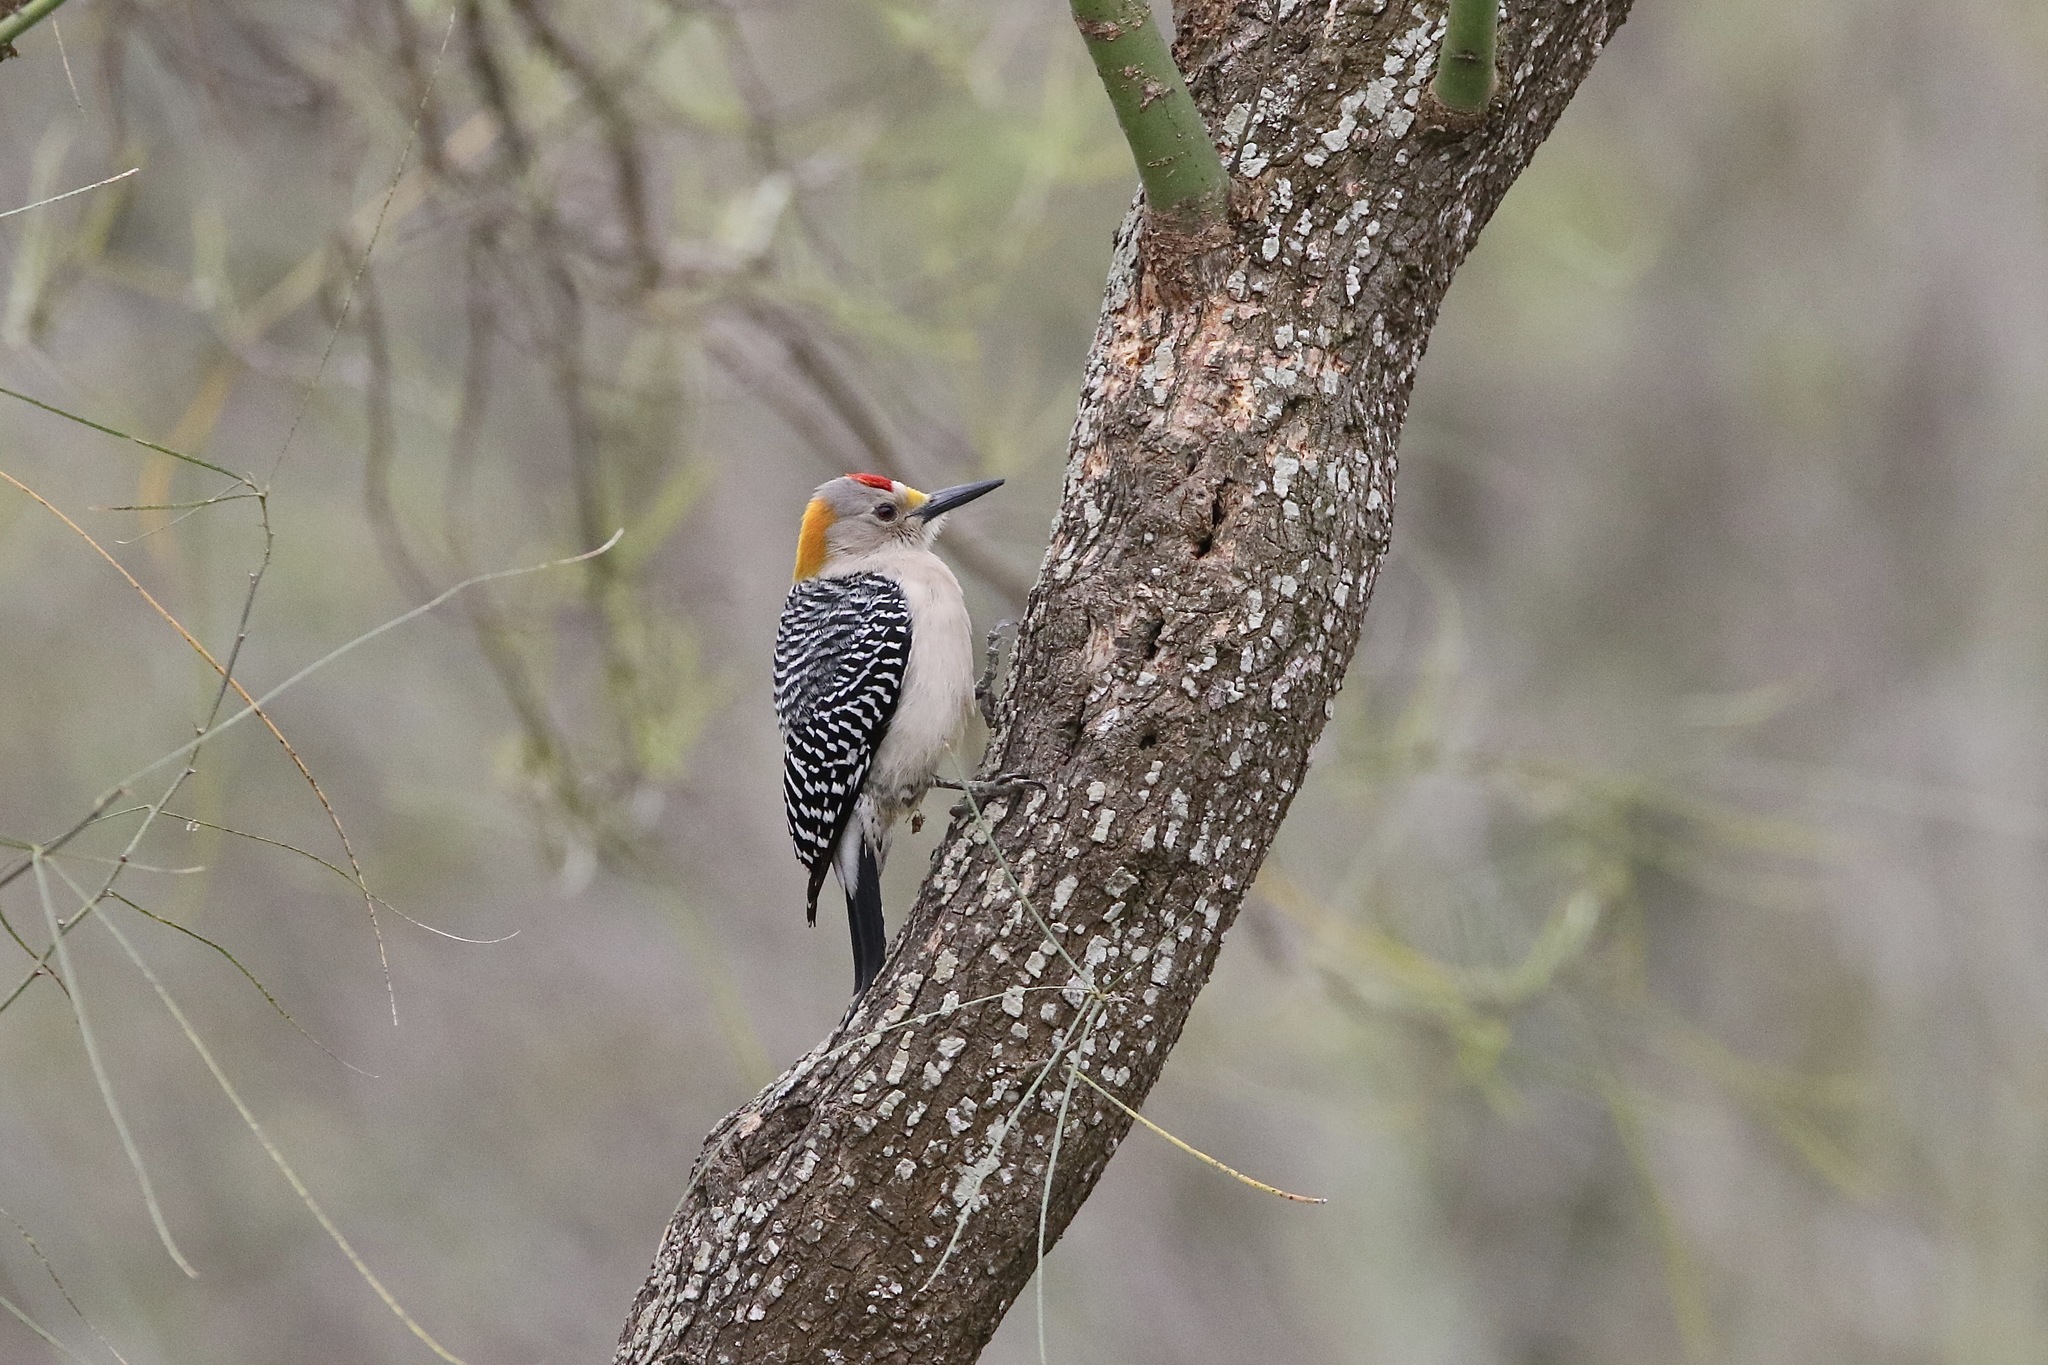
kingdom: Animalia
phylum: Chordata
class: Aves
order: Piciformes
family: Picidae
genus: Melanerpes
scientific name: Melanerpes aurifrons
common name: Golden-fronted woodpecker
